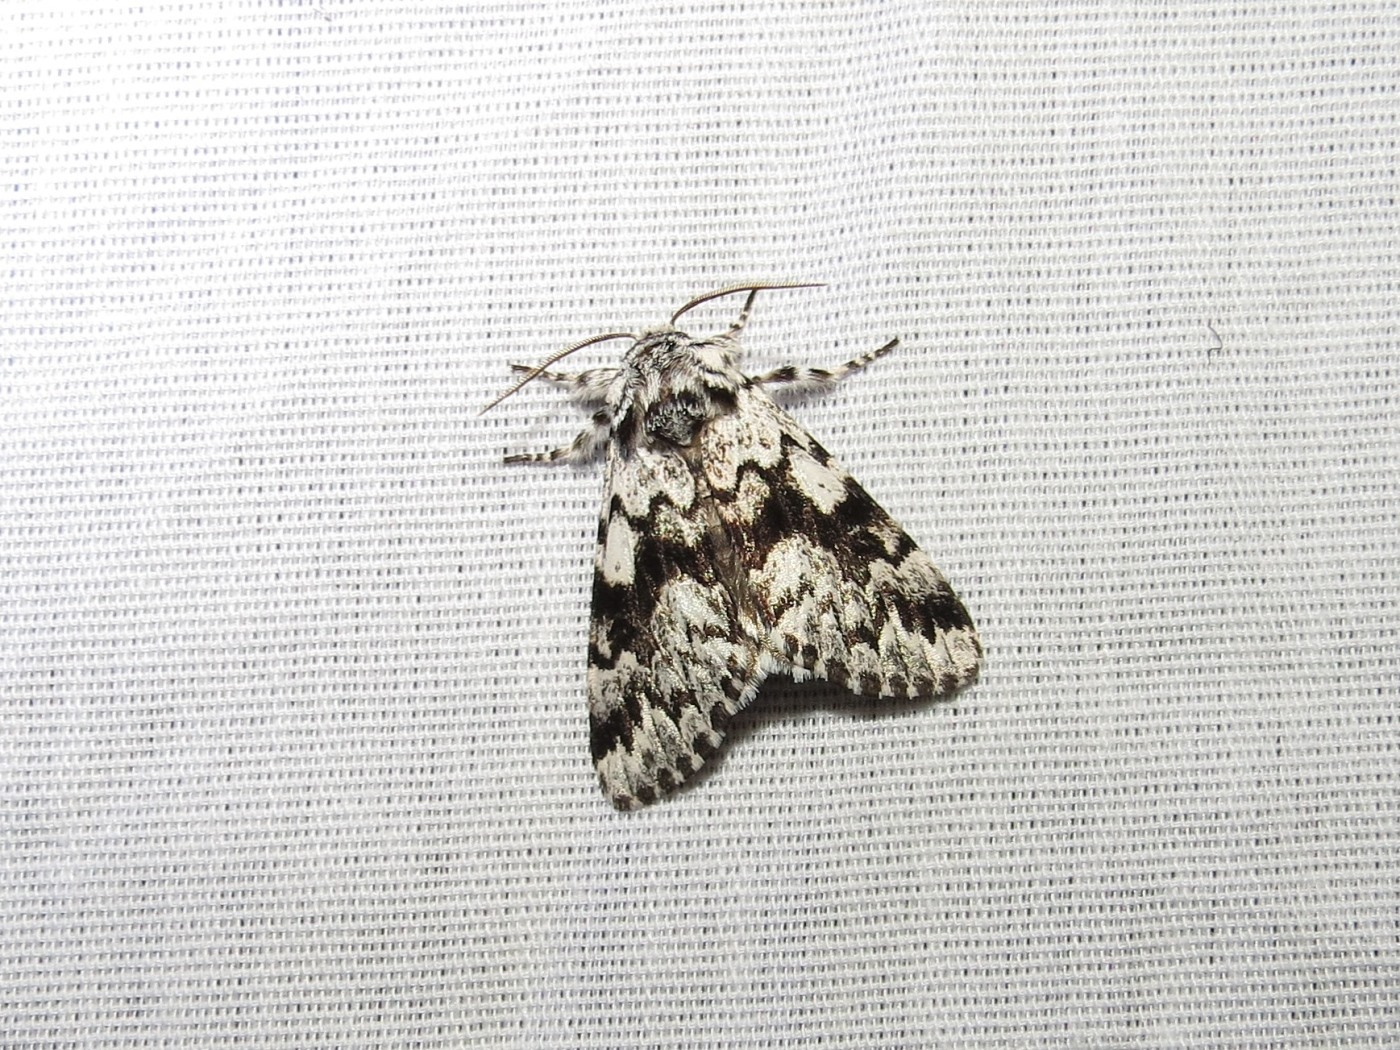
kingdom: Animalia
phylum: Arthropoda
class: Insecta
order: Lepidoptera
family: Noctuidae
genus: Panthea
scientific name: Panthea acronyctoides
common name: Black zigzag moth
